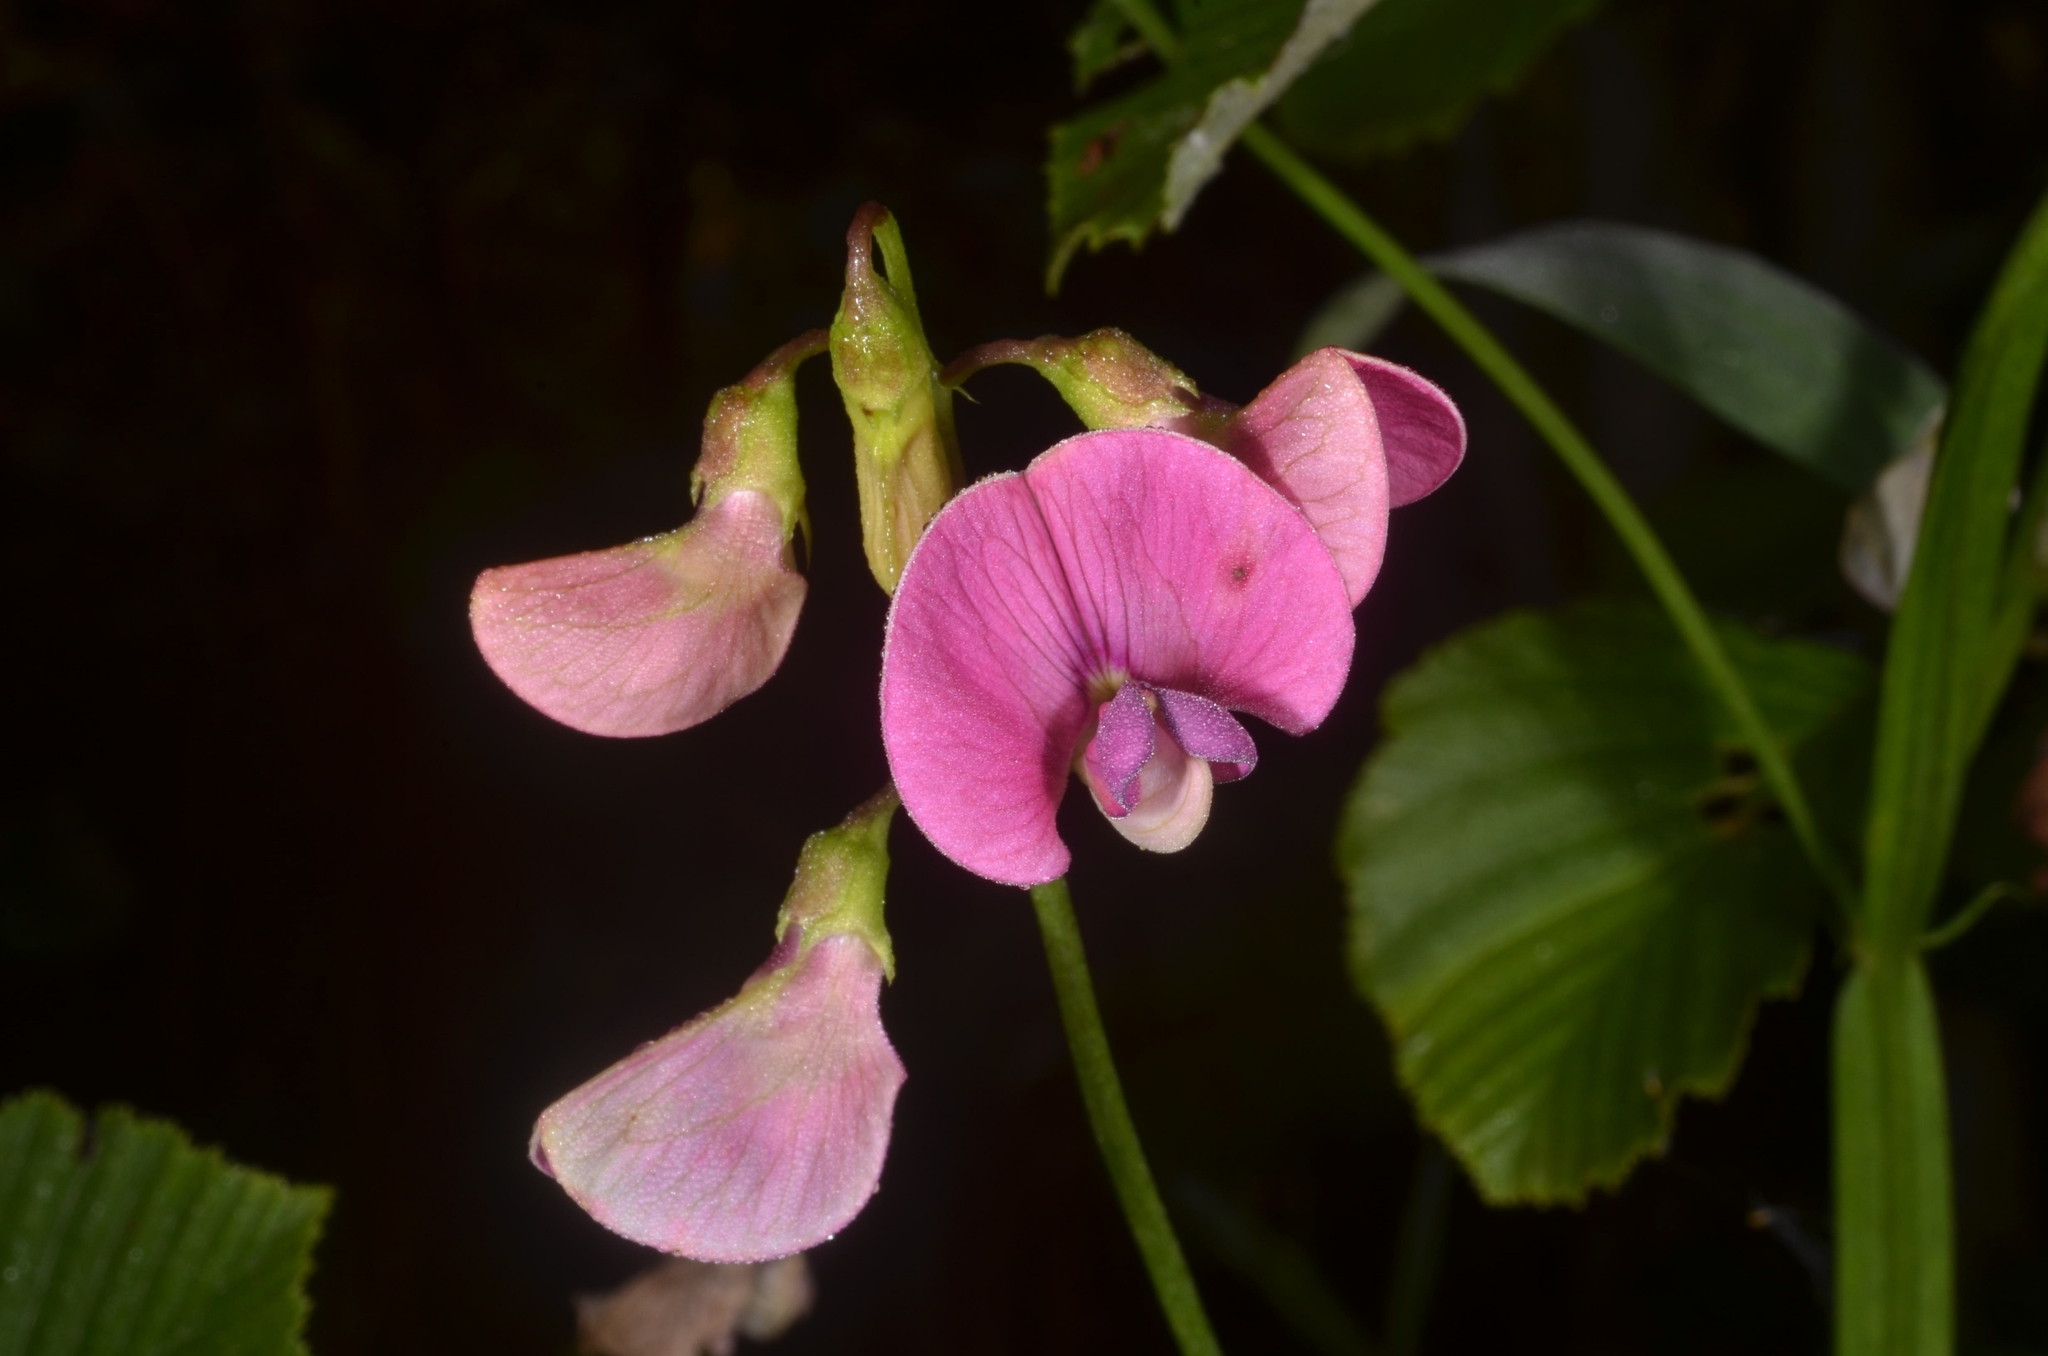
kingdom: Plantae
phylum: Tracheophyta
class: Magnoliopsida
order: Fabales
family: Fabaceae
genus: Lathyrus
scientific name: Lathyrus sylvestris
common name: Flat pea
